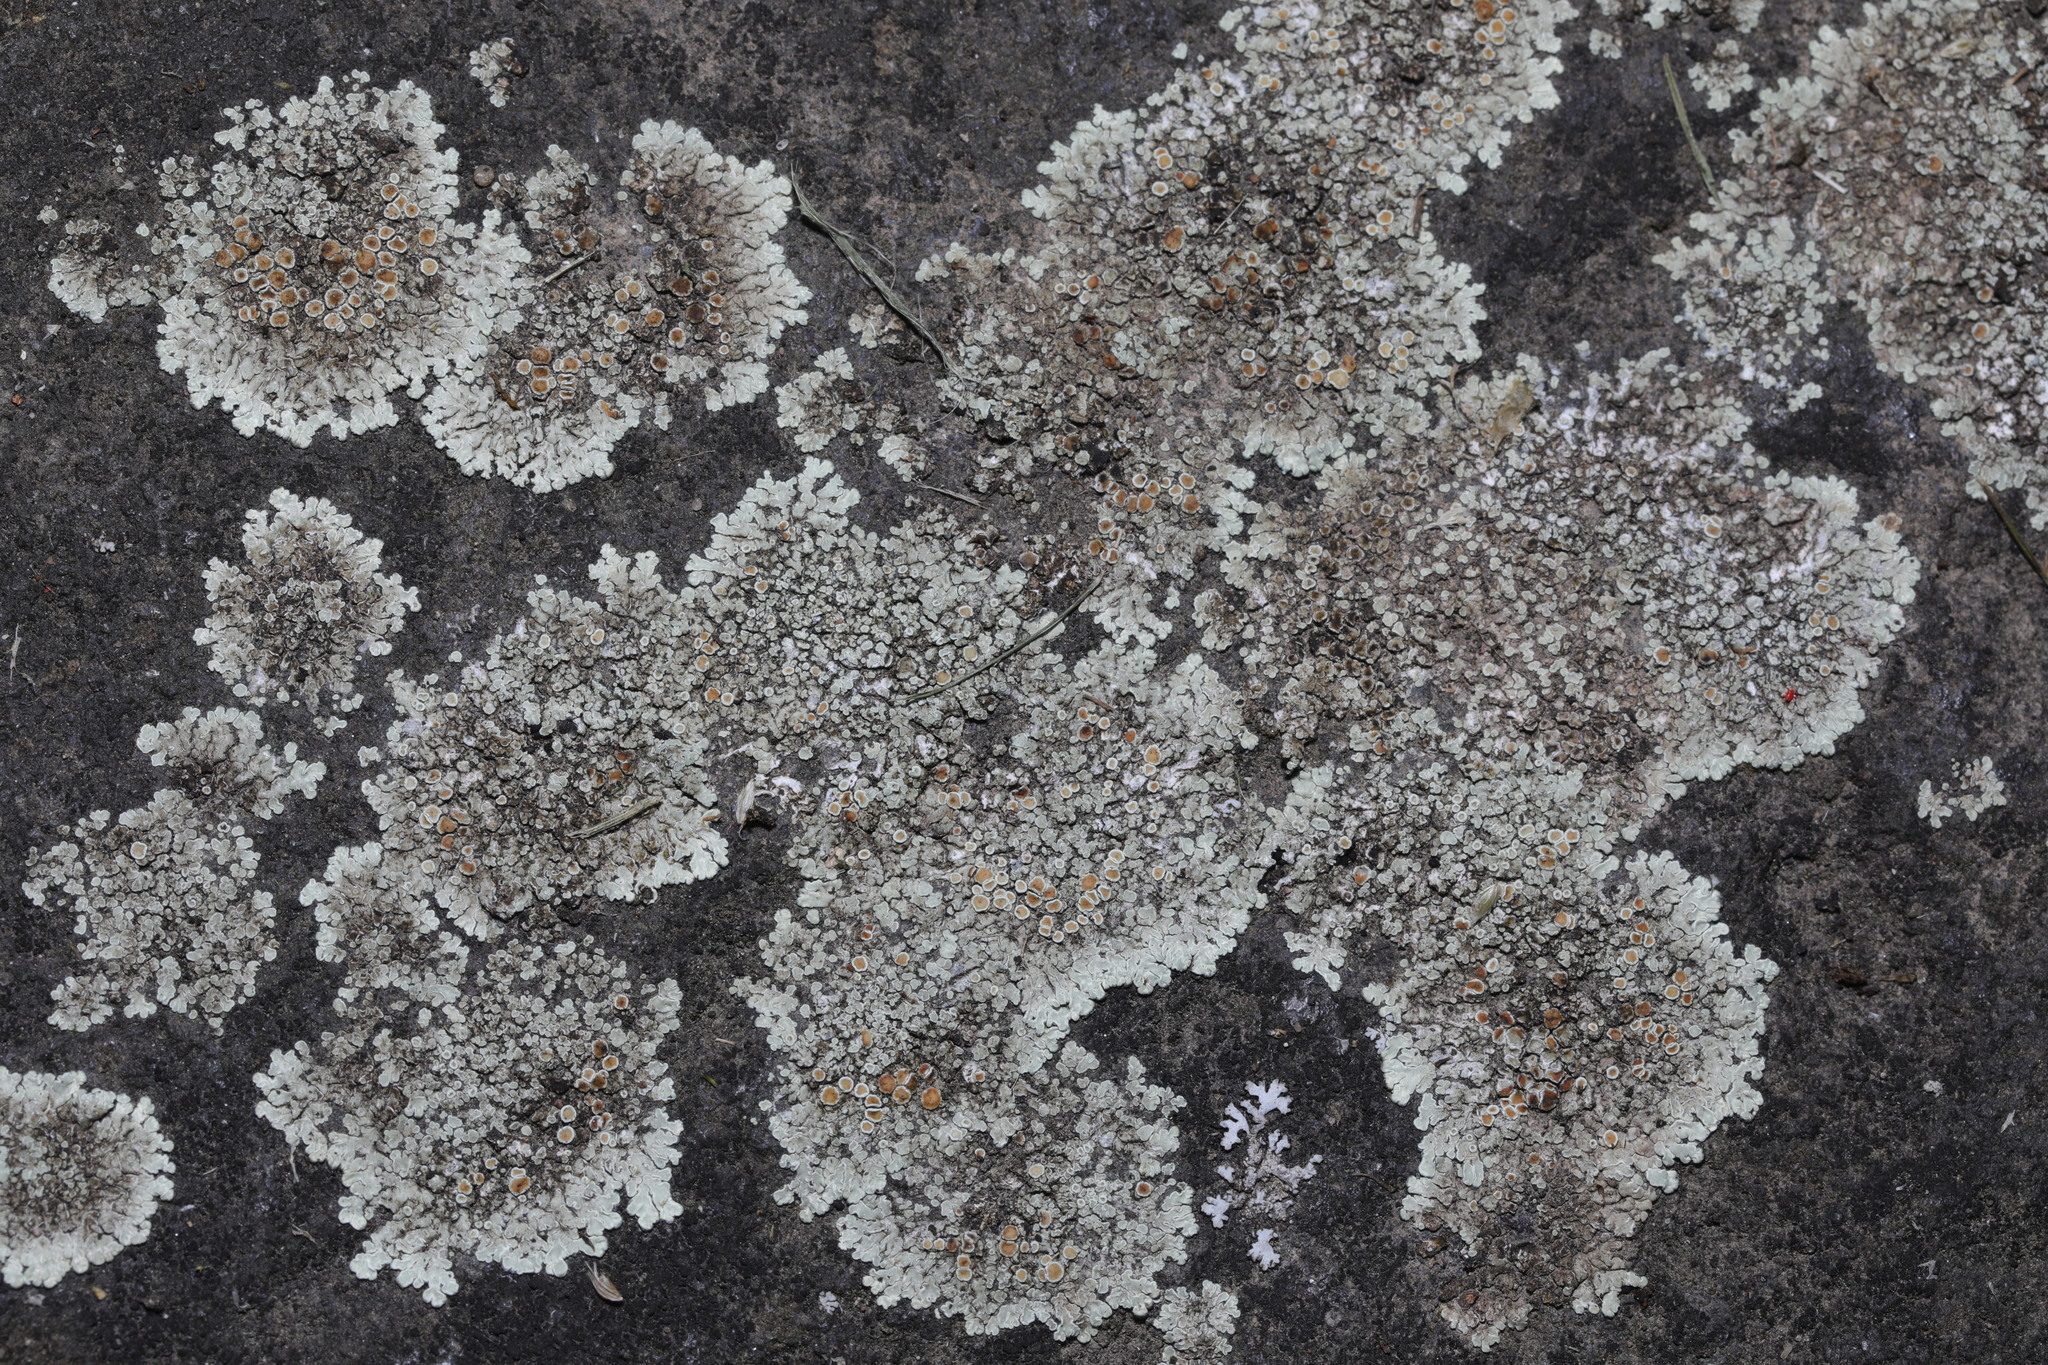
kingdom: Fungi
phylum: Ascomycota
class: Lecanoromycetes
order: Lecanorales
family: Lecanoraceae
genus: Protoparmeliopsis
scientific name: Protoparmeliopsis muralis
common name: Stonewall rim lichen
